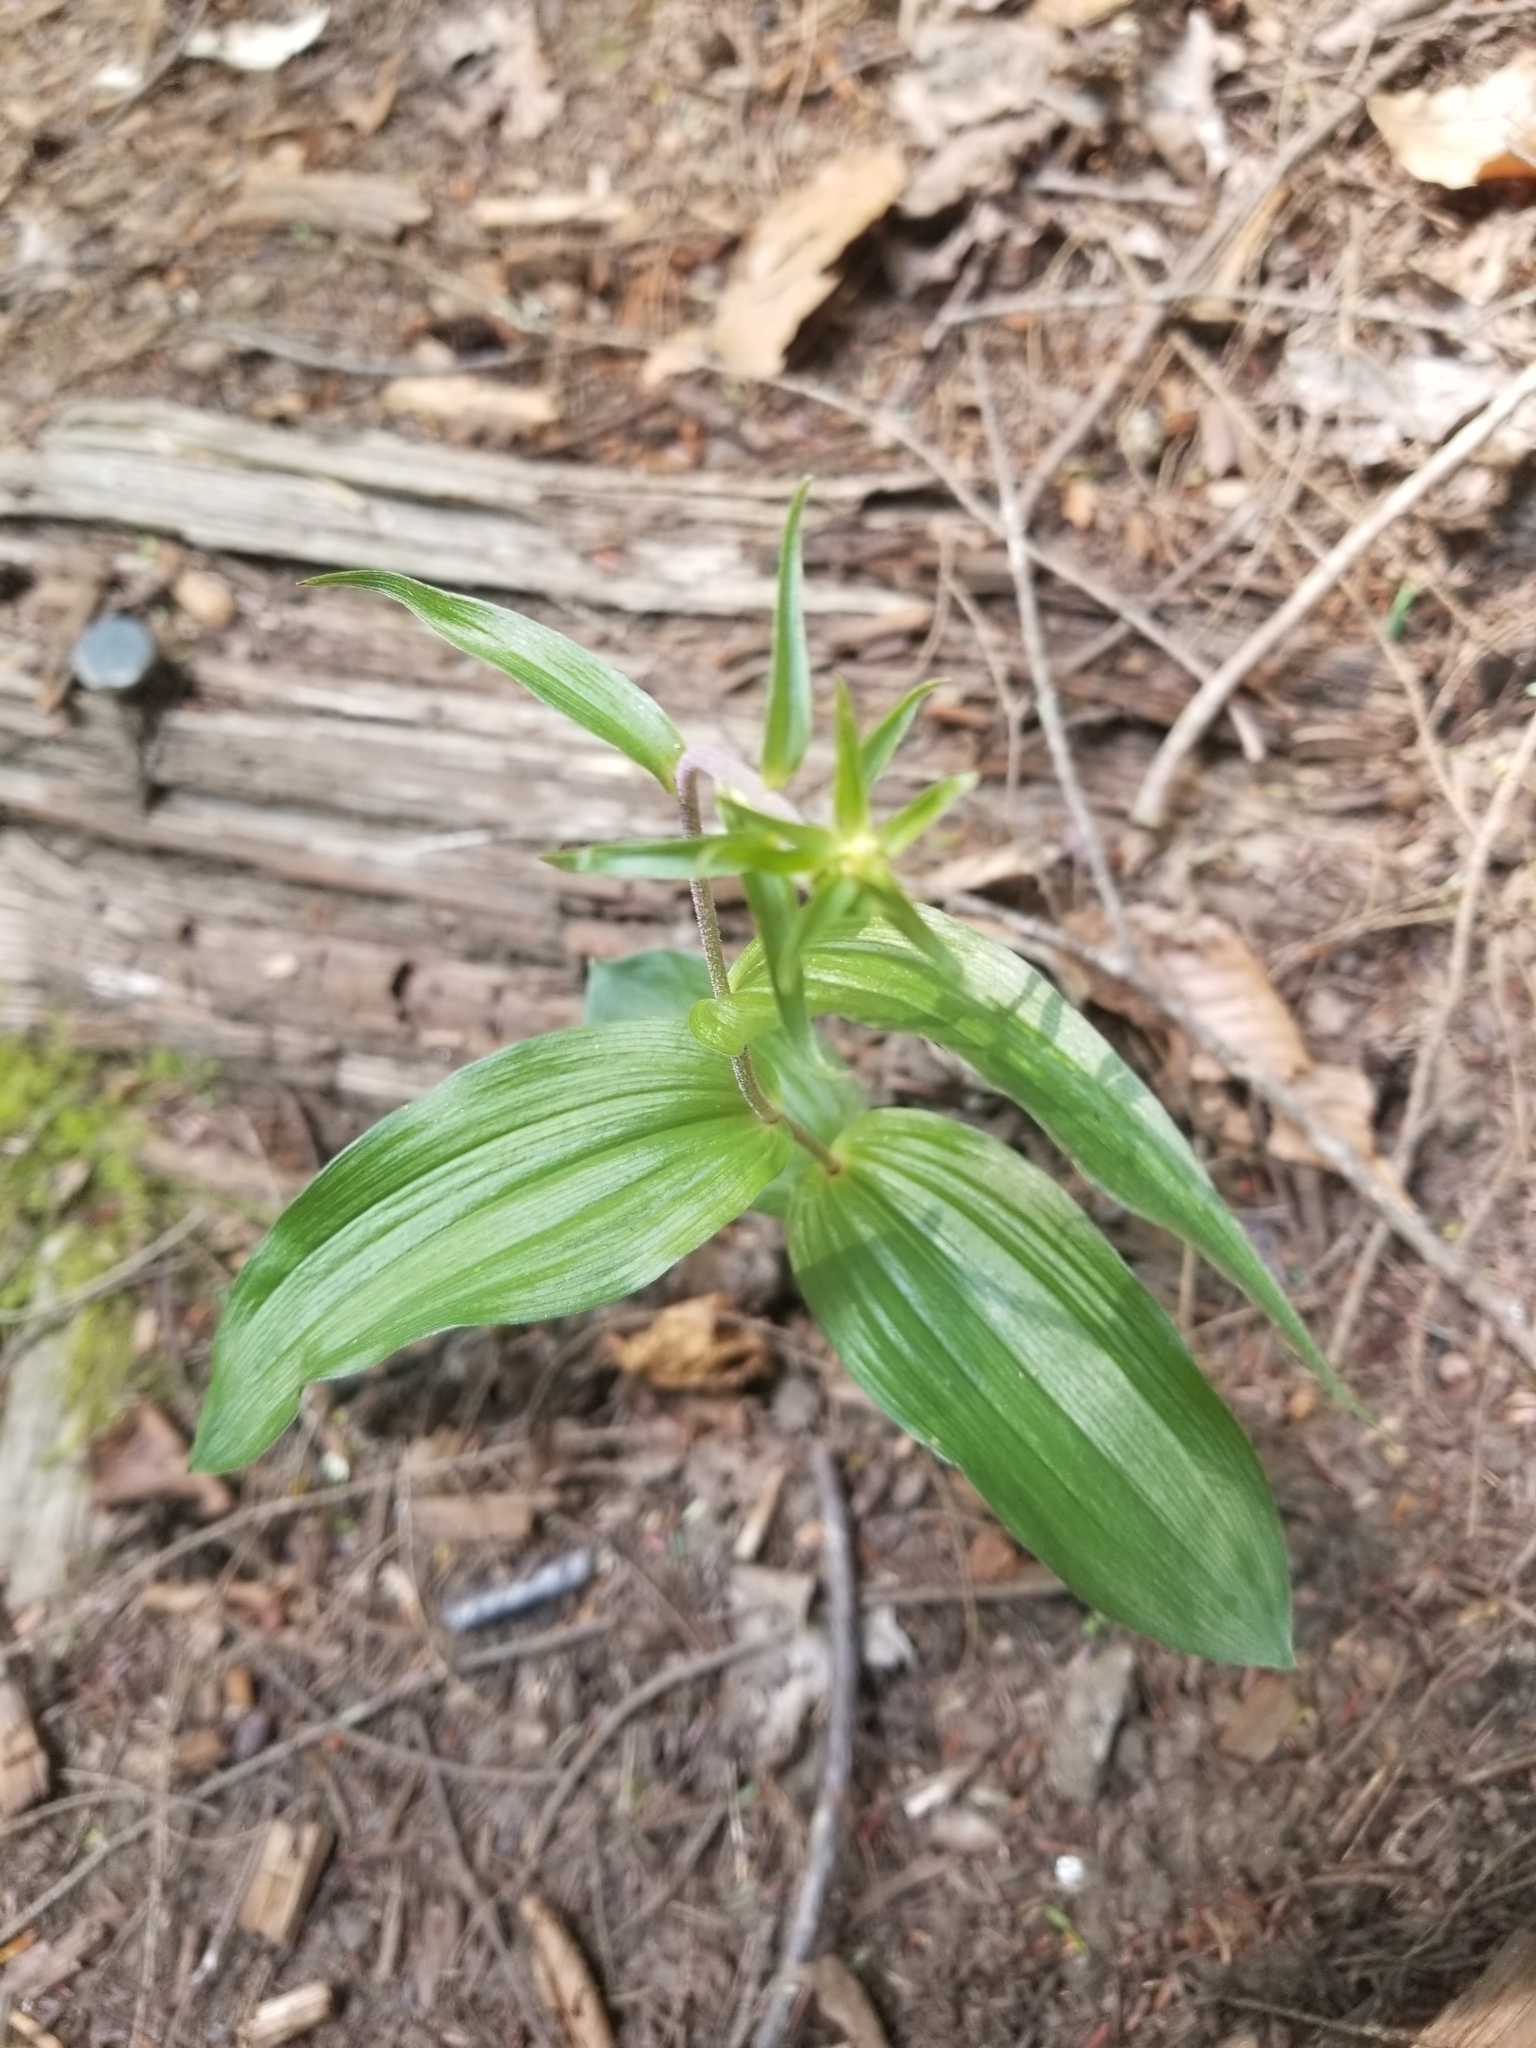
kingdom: Plantae
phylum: Tracheophyta
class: Liliopsida
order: Asparagales
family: Orchidaceae
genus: Epipactis
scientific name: Epipactis helleborine
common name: Broad-leaved helleborine
